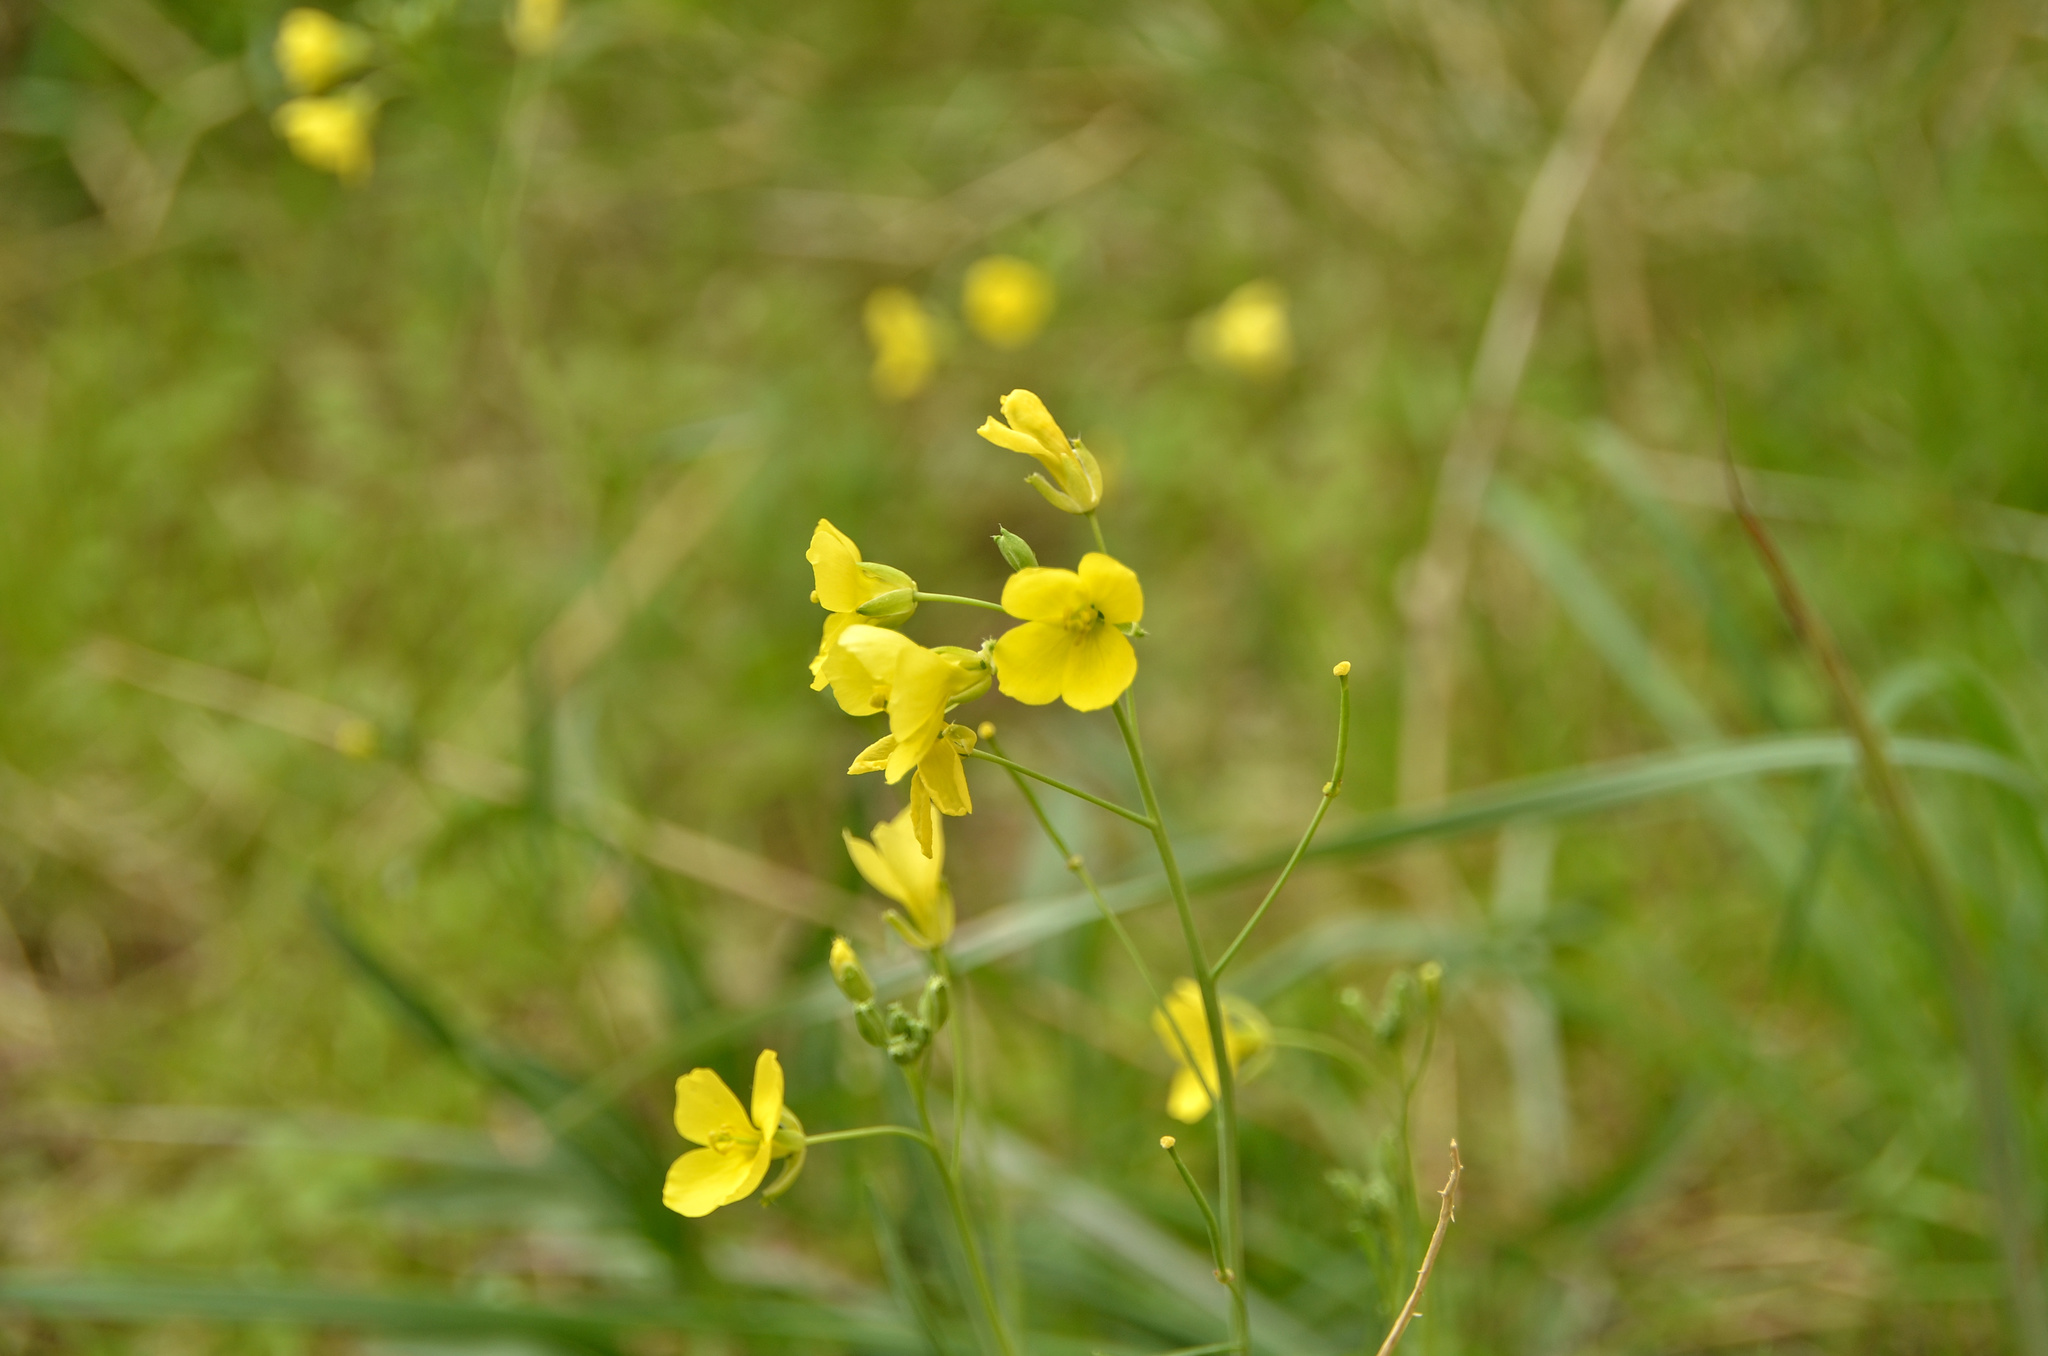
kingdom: Plantae
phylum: Tracheophyta
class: Magnoliopsida
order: Brassicales
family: Brassicaceae
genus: Diplotaxis
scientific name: Diplotaxis tenuifolia
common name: Perennial wall-rocket
